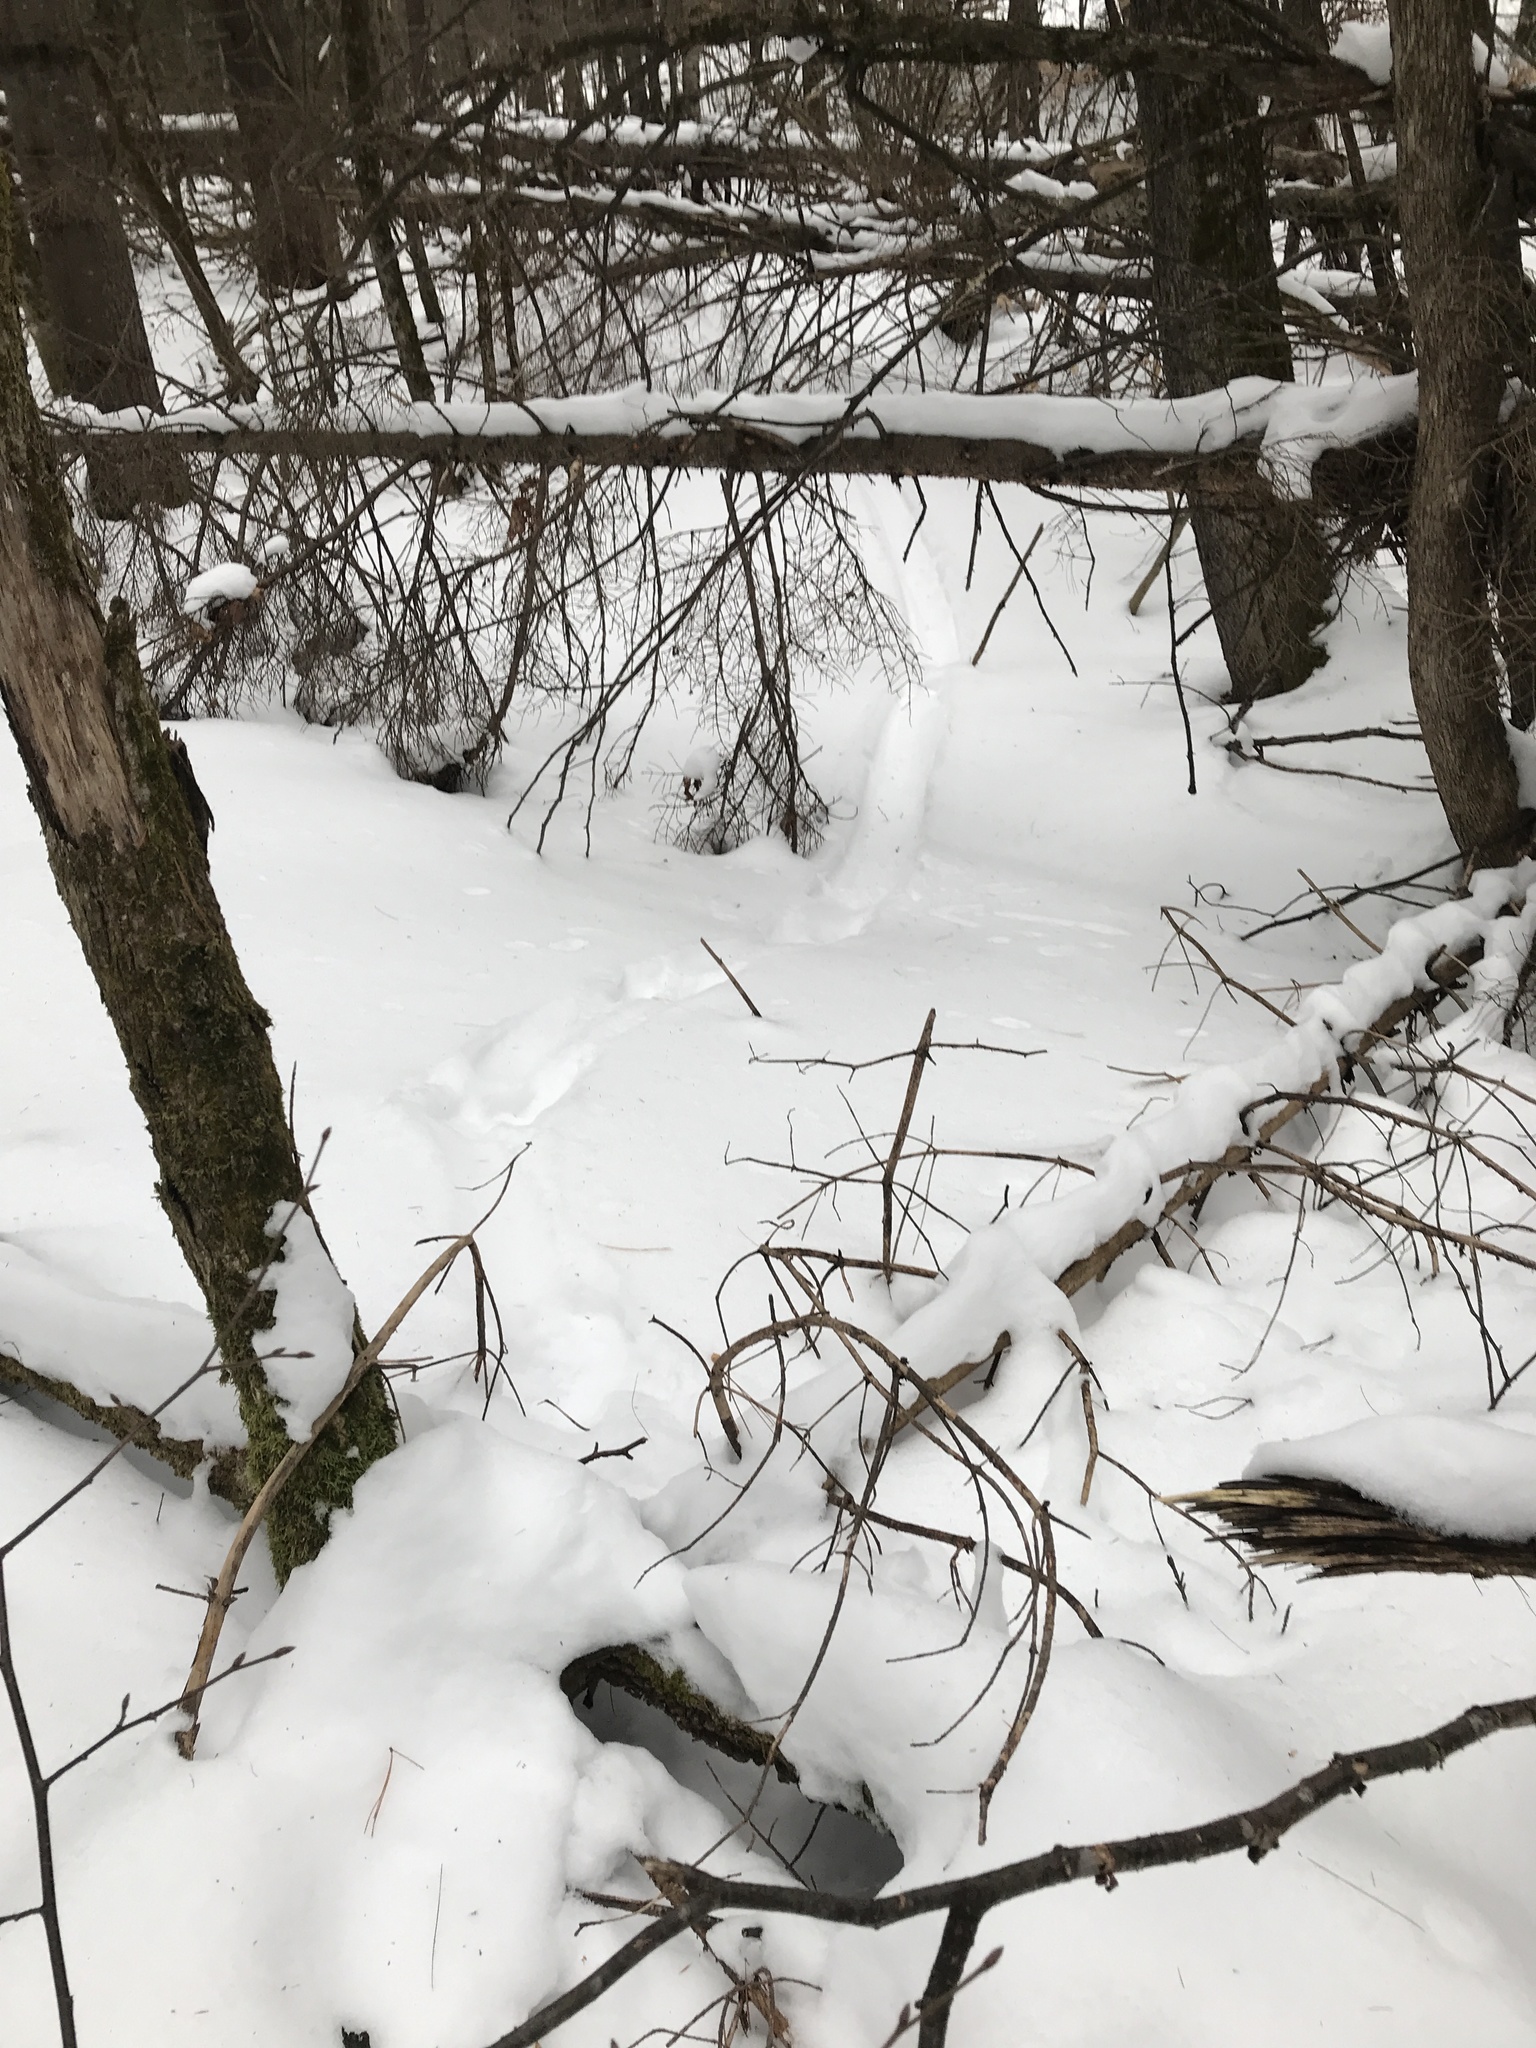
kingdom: Animalia
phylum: Chordata
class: Mammalia
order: Carnivora
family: Mustelidae
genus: Lontra
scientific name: Lontra canadensis
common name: North american river otter
